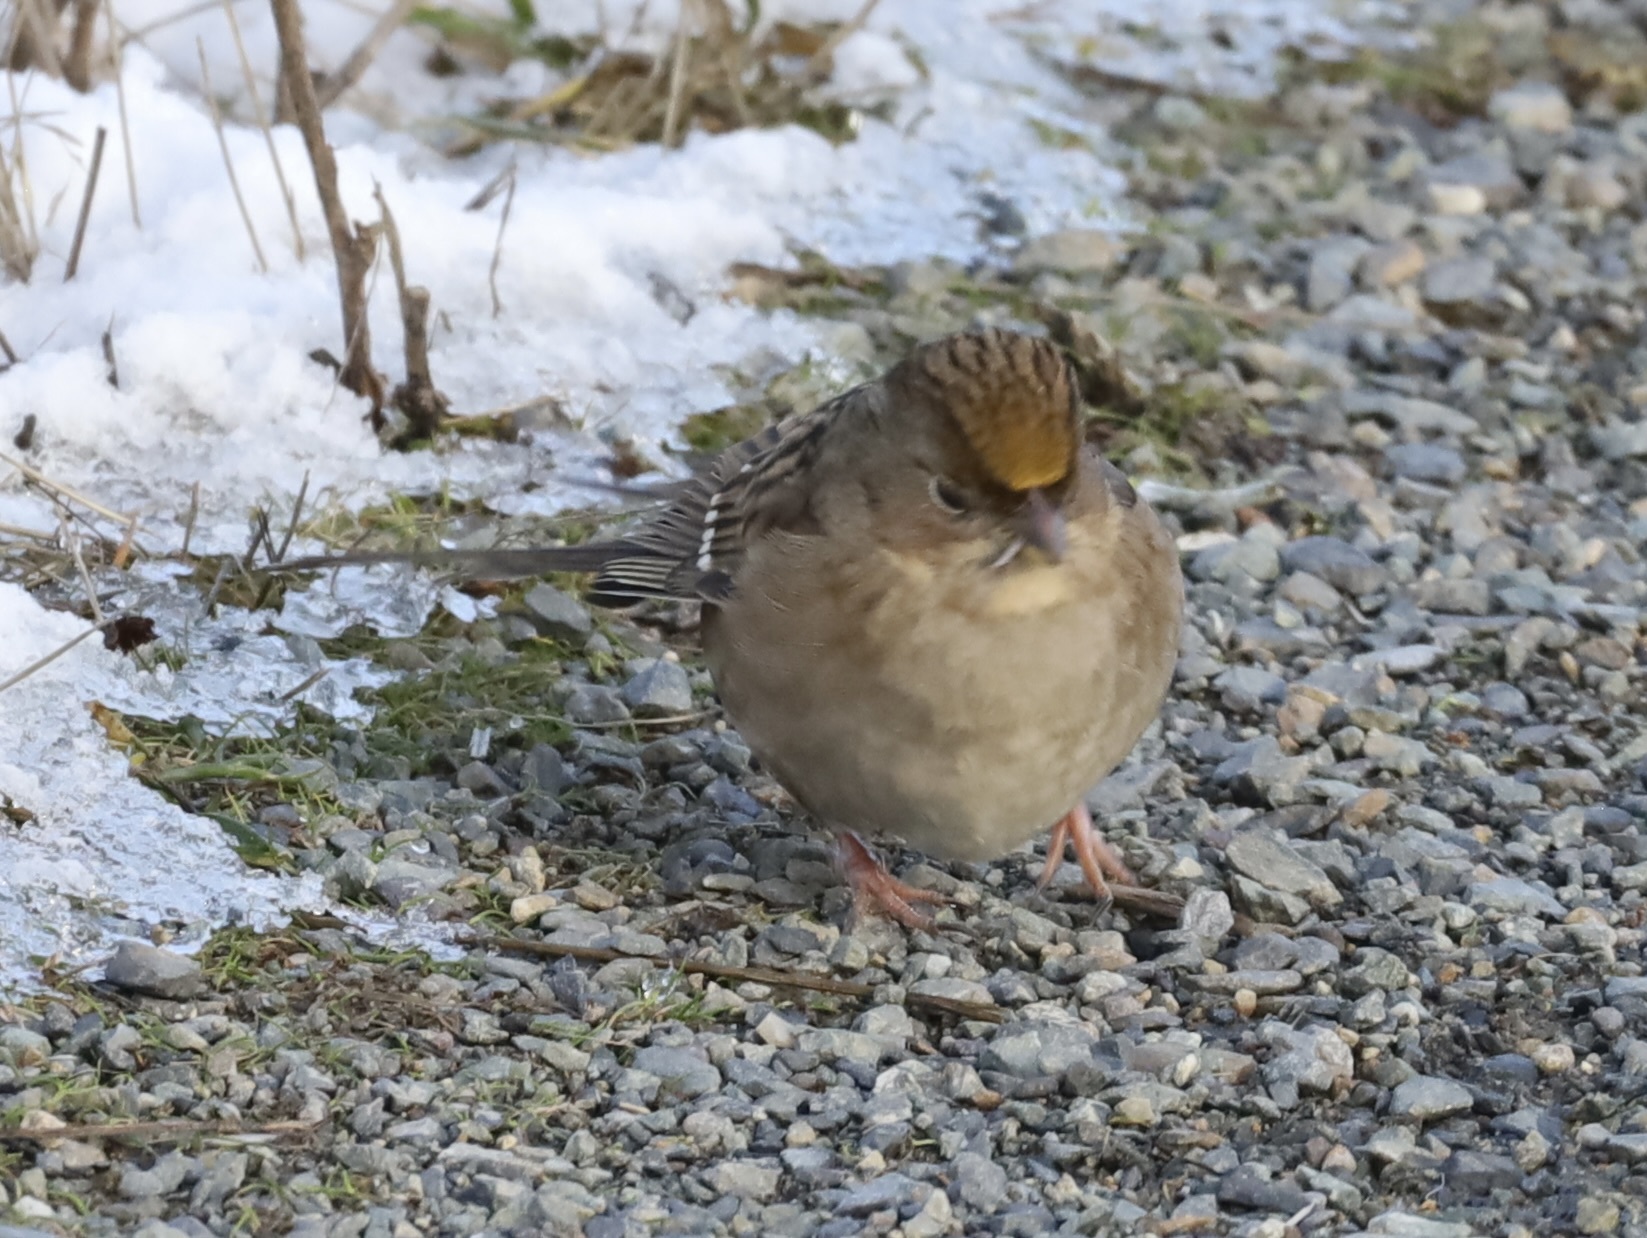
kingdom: Animalia
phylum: Chordata
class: Aves
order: Passeriformes
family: Passerellidae
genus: Zonotrichia
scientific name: Zonotrichia atricapilla
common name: Golden-crowned sparrow
